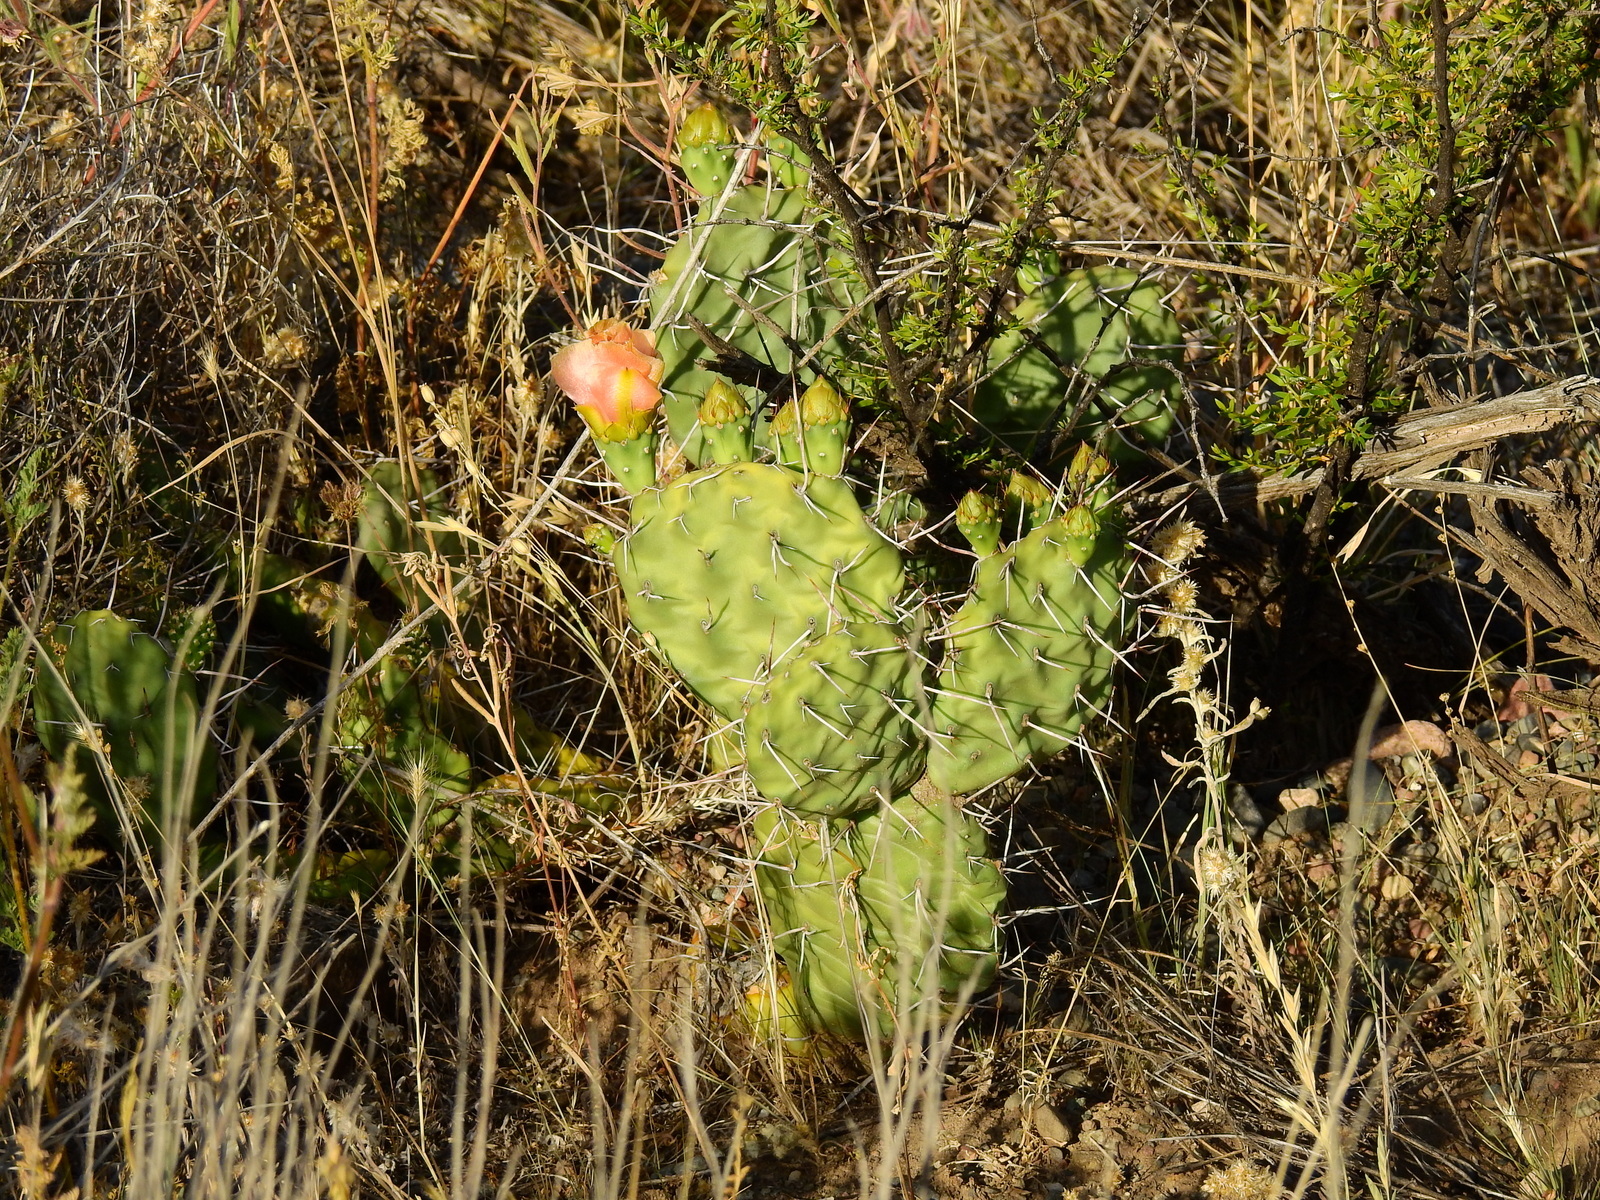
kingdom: Plantae
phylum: Tracheophyta
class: Magnoliopsida
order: Caryophyllales
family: Cactaceae
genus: Opuntia
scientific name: Opuntia sulphurea
